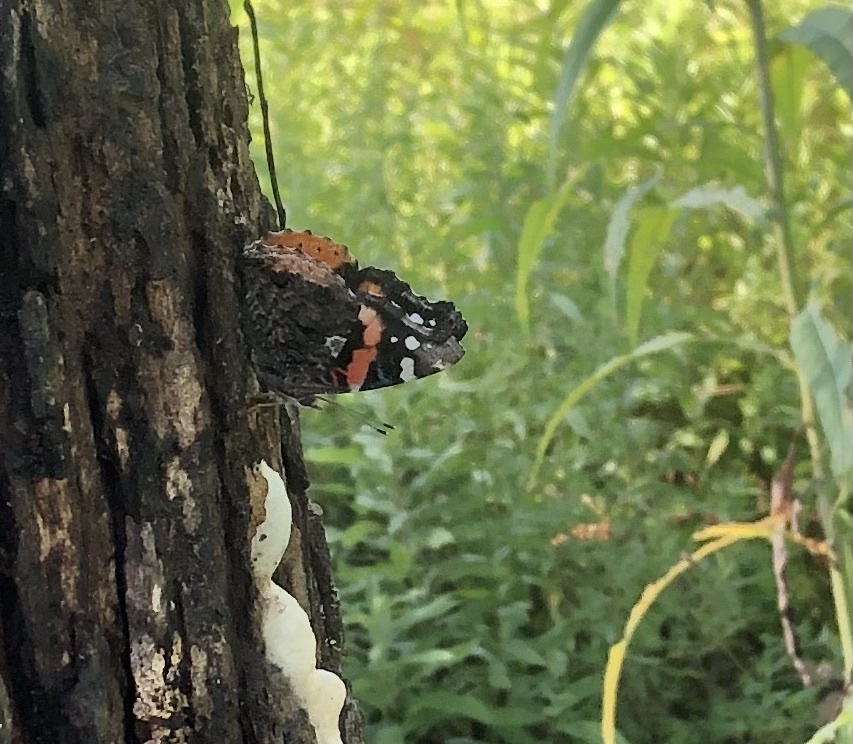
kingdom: Animalia
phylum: Arthropoda
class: Insecta
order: Lepidoptera
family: Nymphalidae
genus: Vanessa
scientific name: Vanessa atalanta
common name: Red admiral
